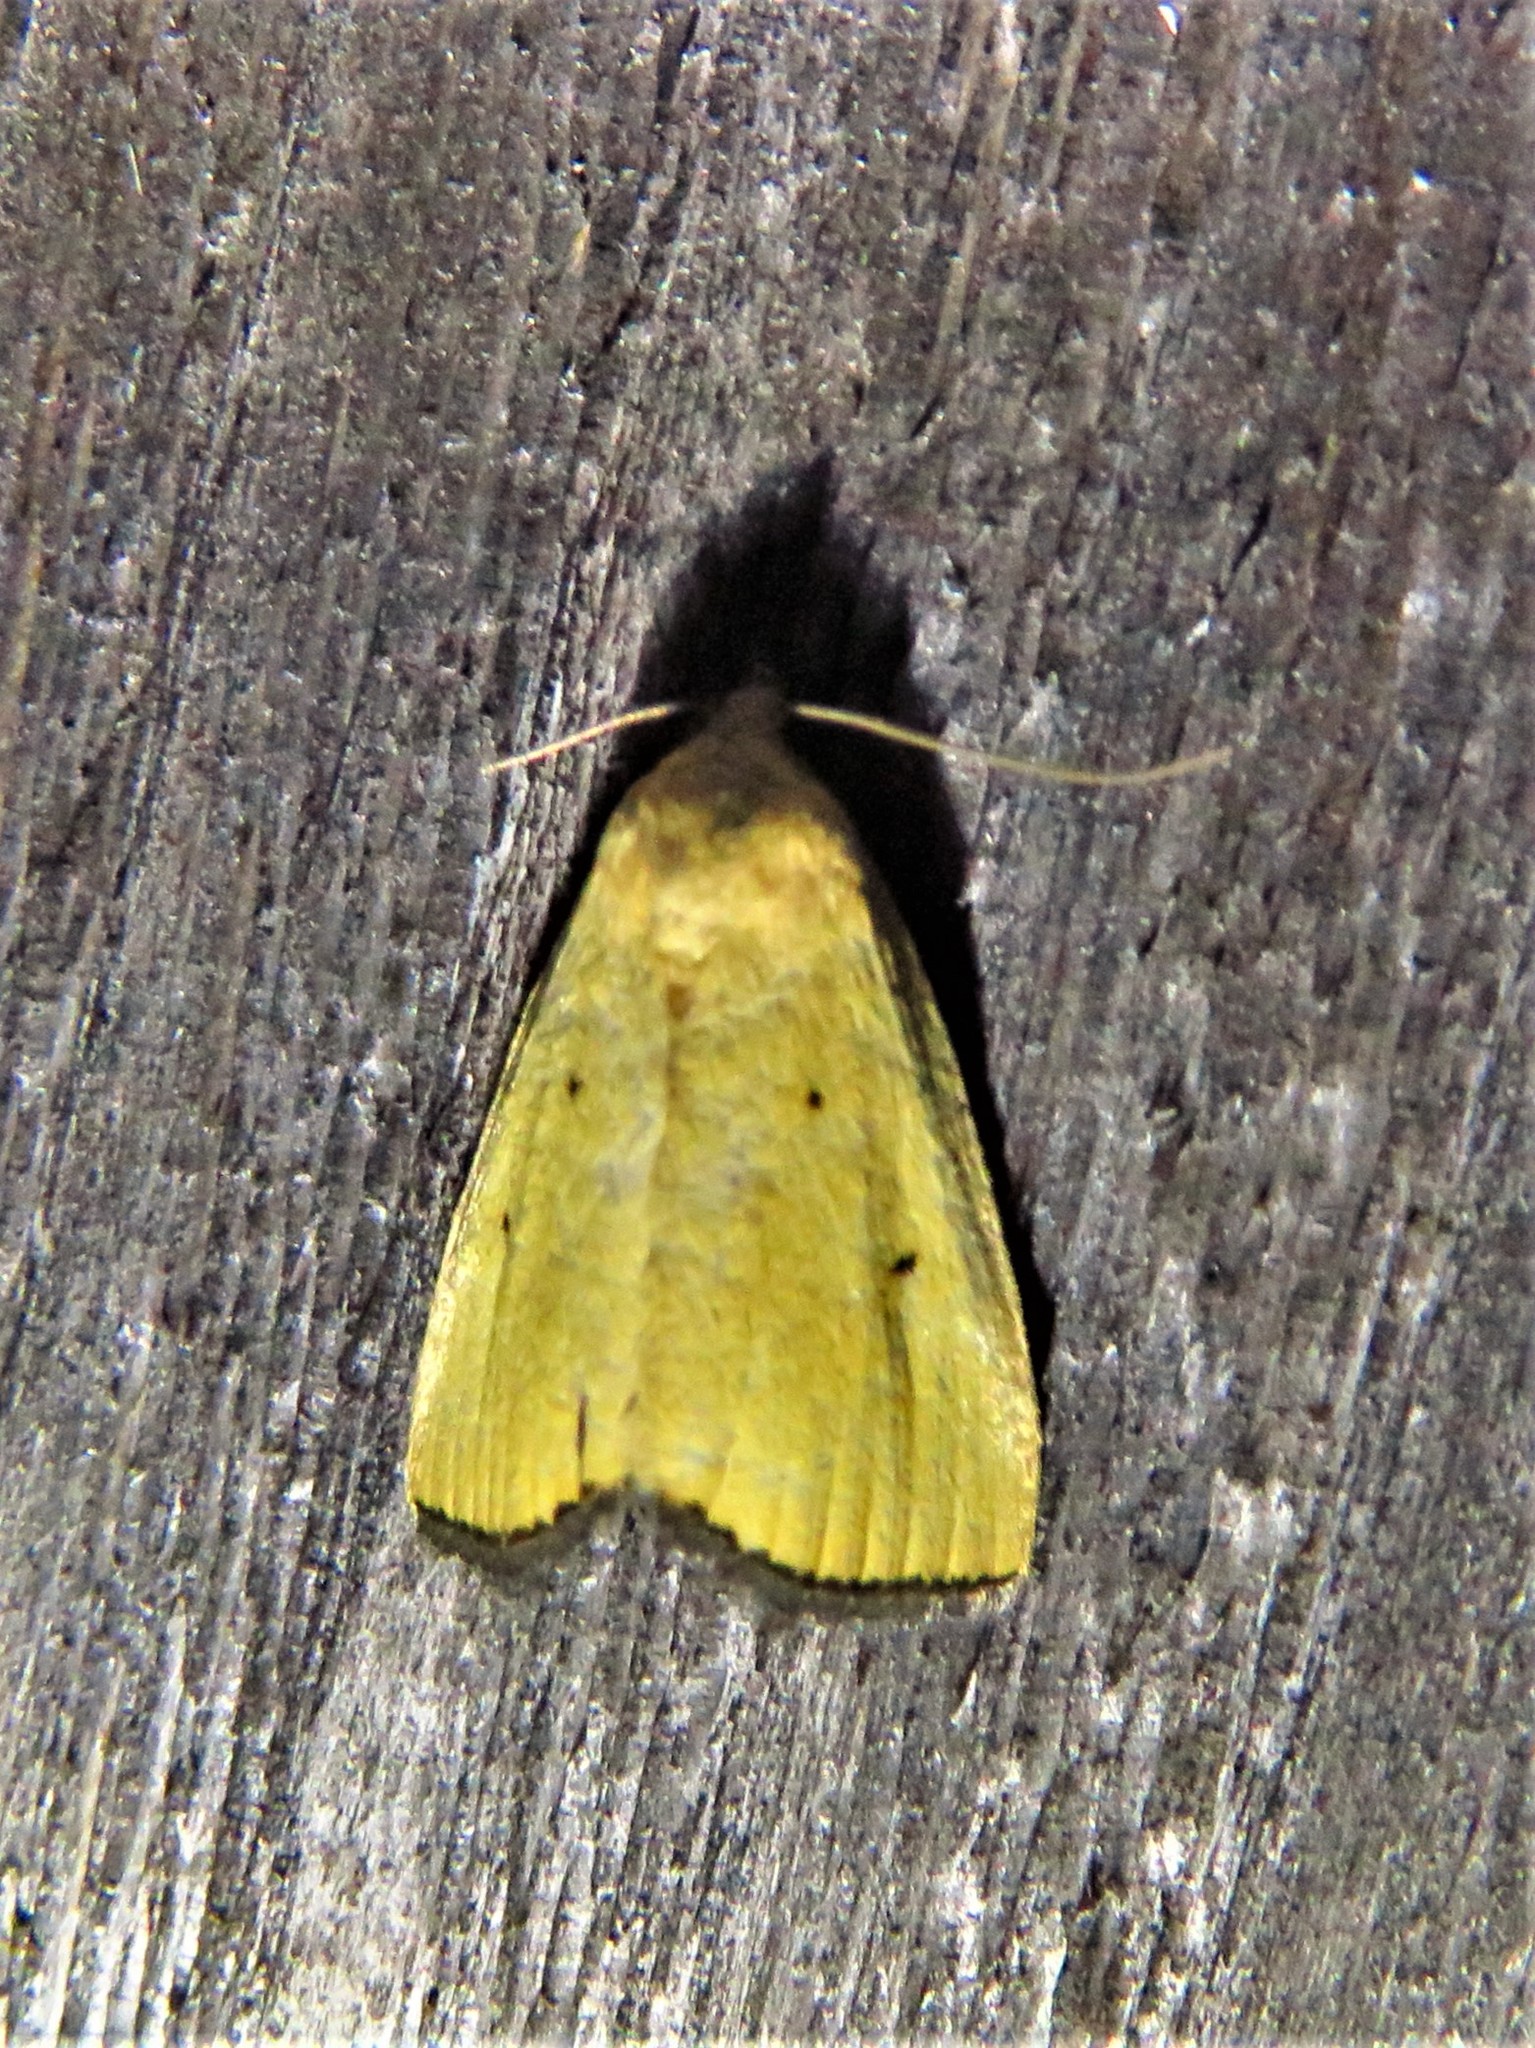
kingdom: Animalia
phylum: Arthropoda
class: Insecta
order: Lepidoptera
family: Noctuidae
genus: Marimatha
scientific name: Marimatha nigrofimbria
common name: Black-bordered lemon moth
